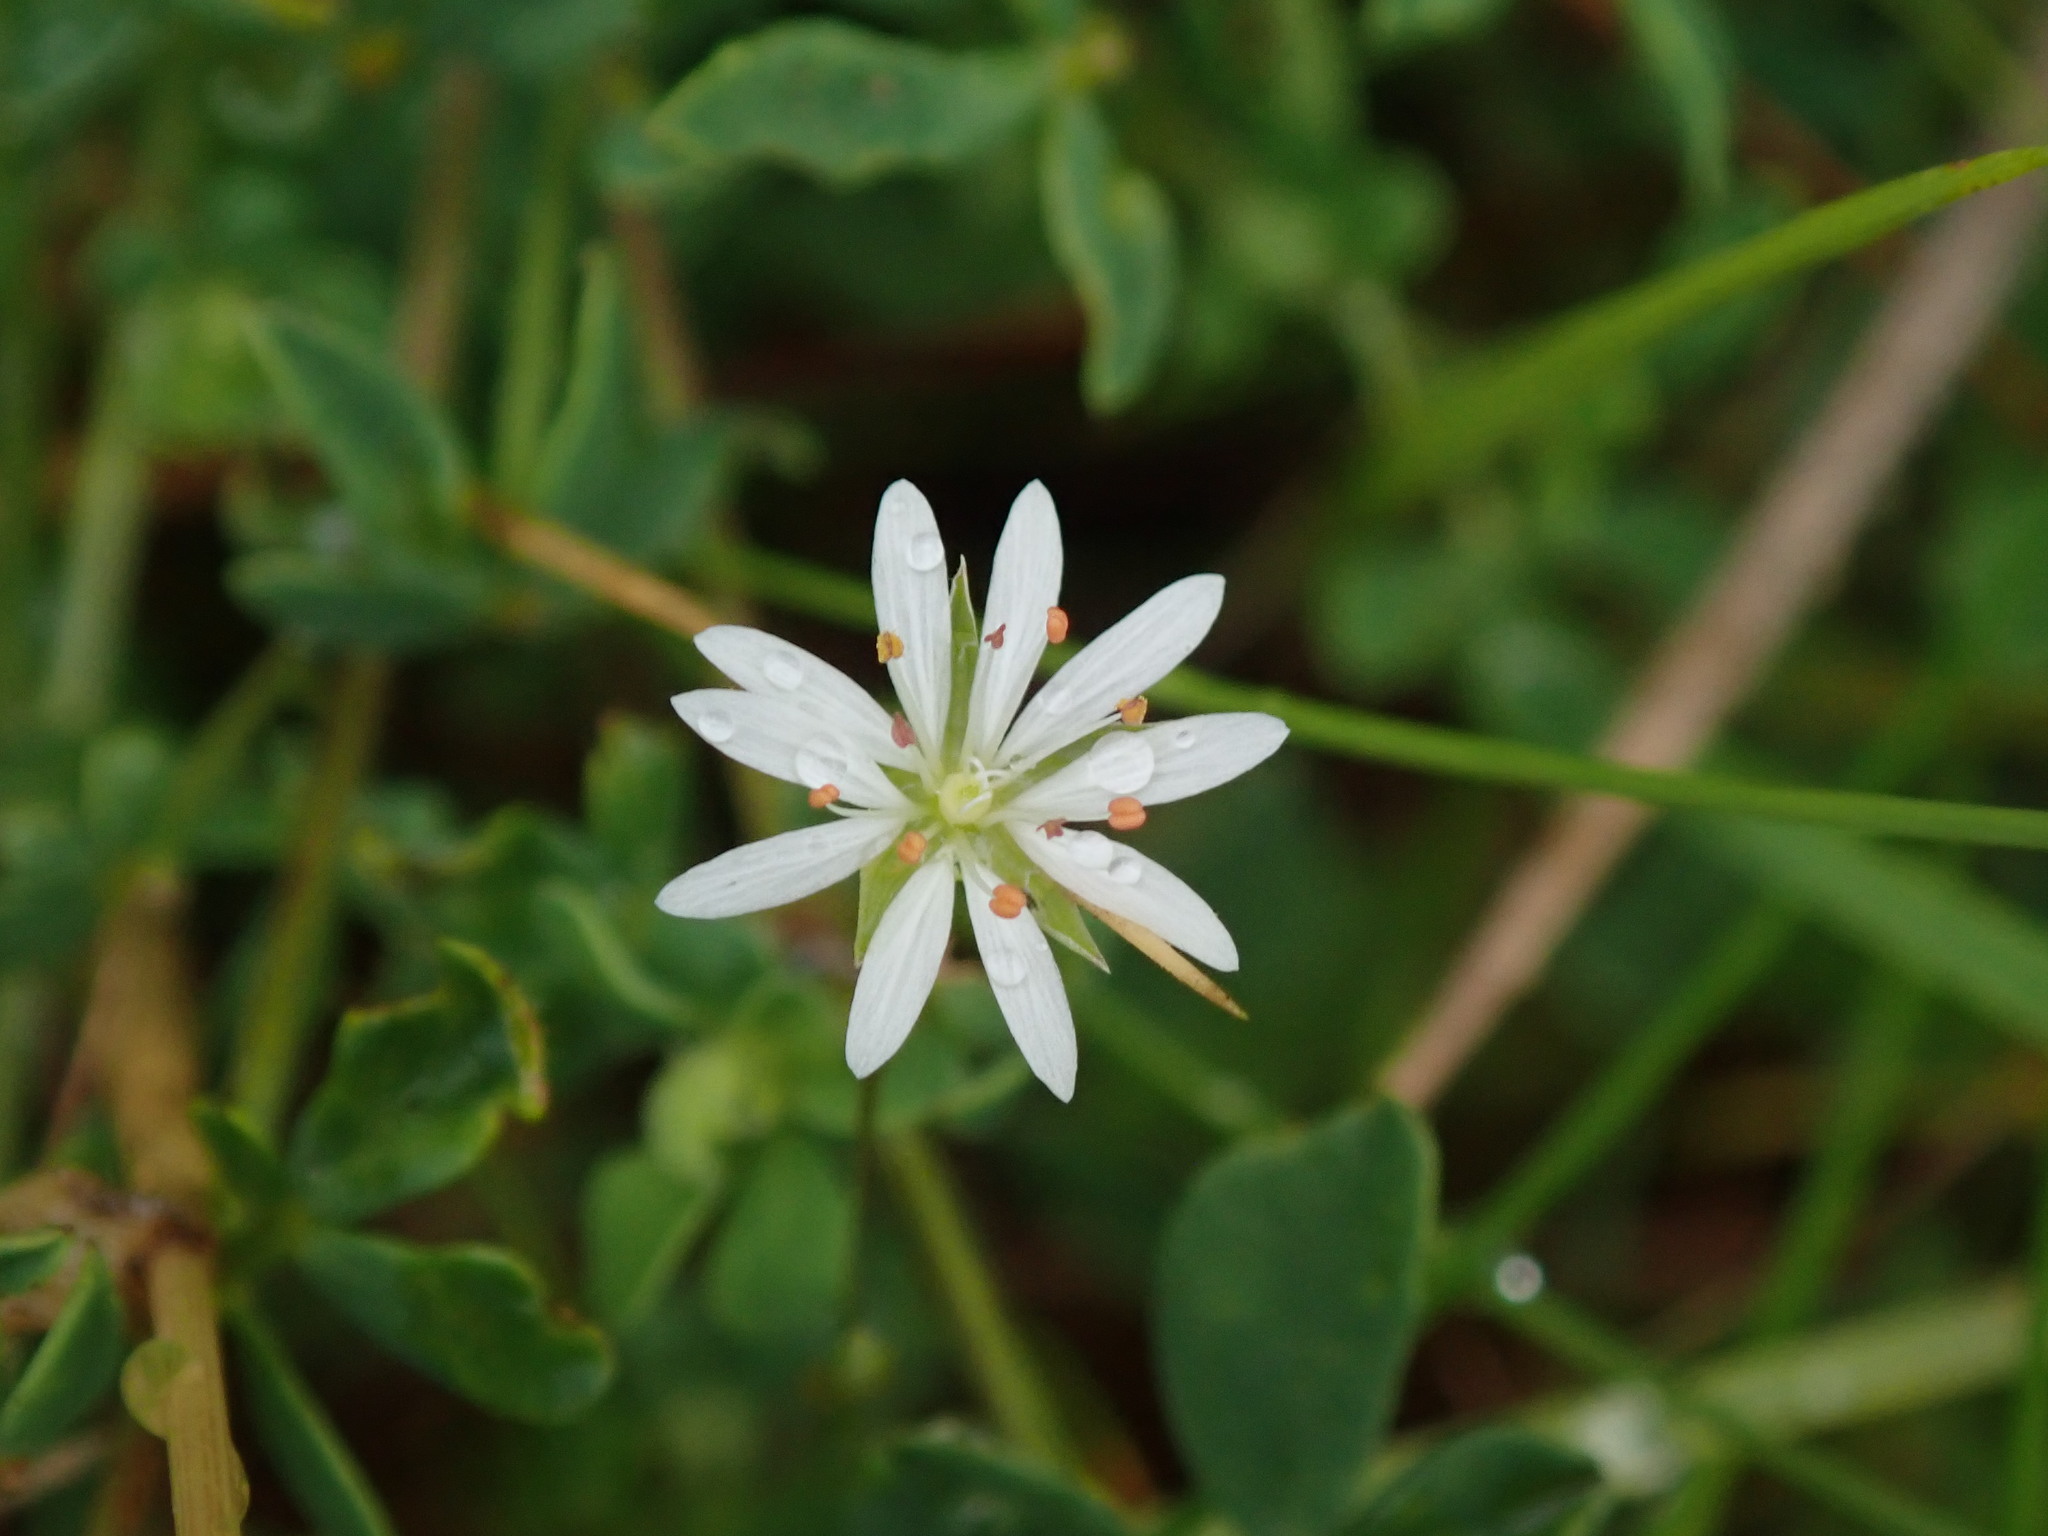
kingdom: Plantae
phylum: Tracheophyta
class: Magnoliopsida
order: Caryophyllales
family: Caryophyllaceae
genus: Stellaria
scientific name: Stellaria graminea
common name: Grass-like starwort
